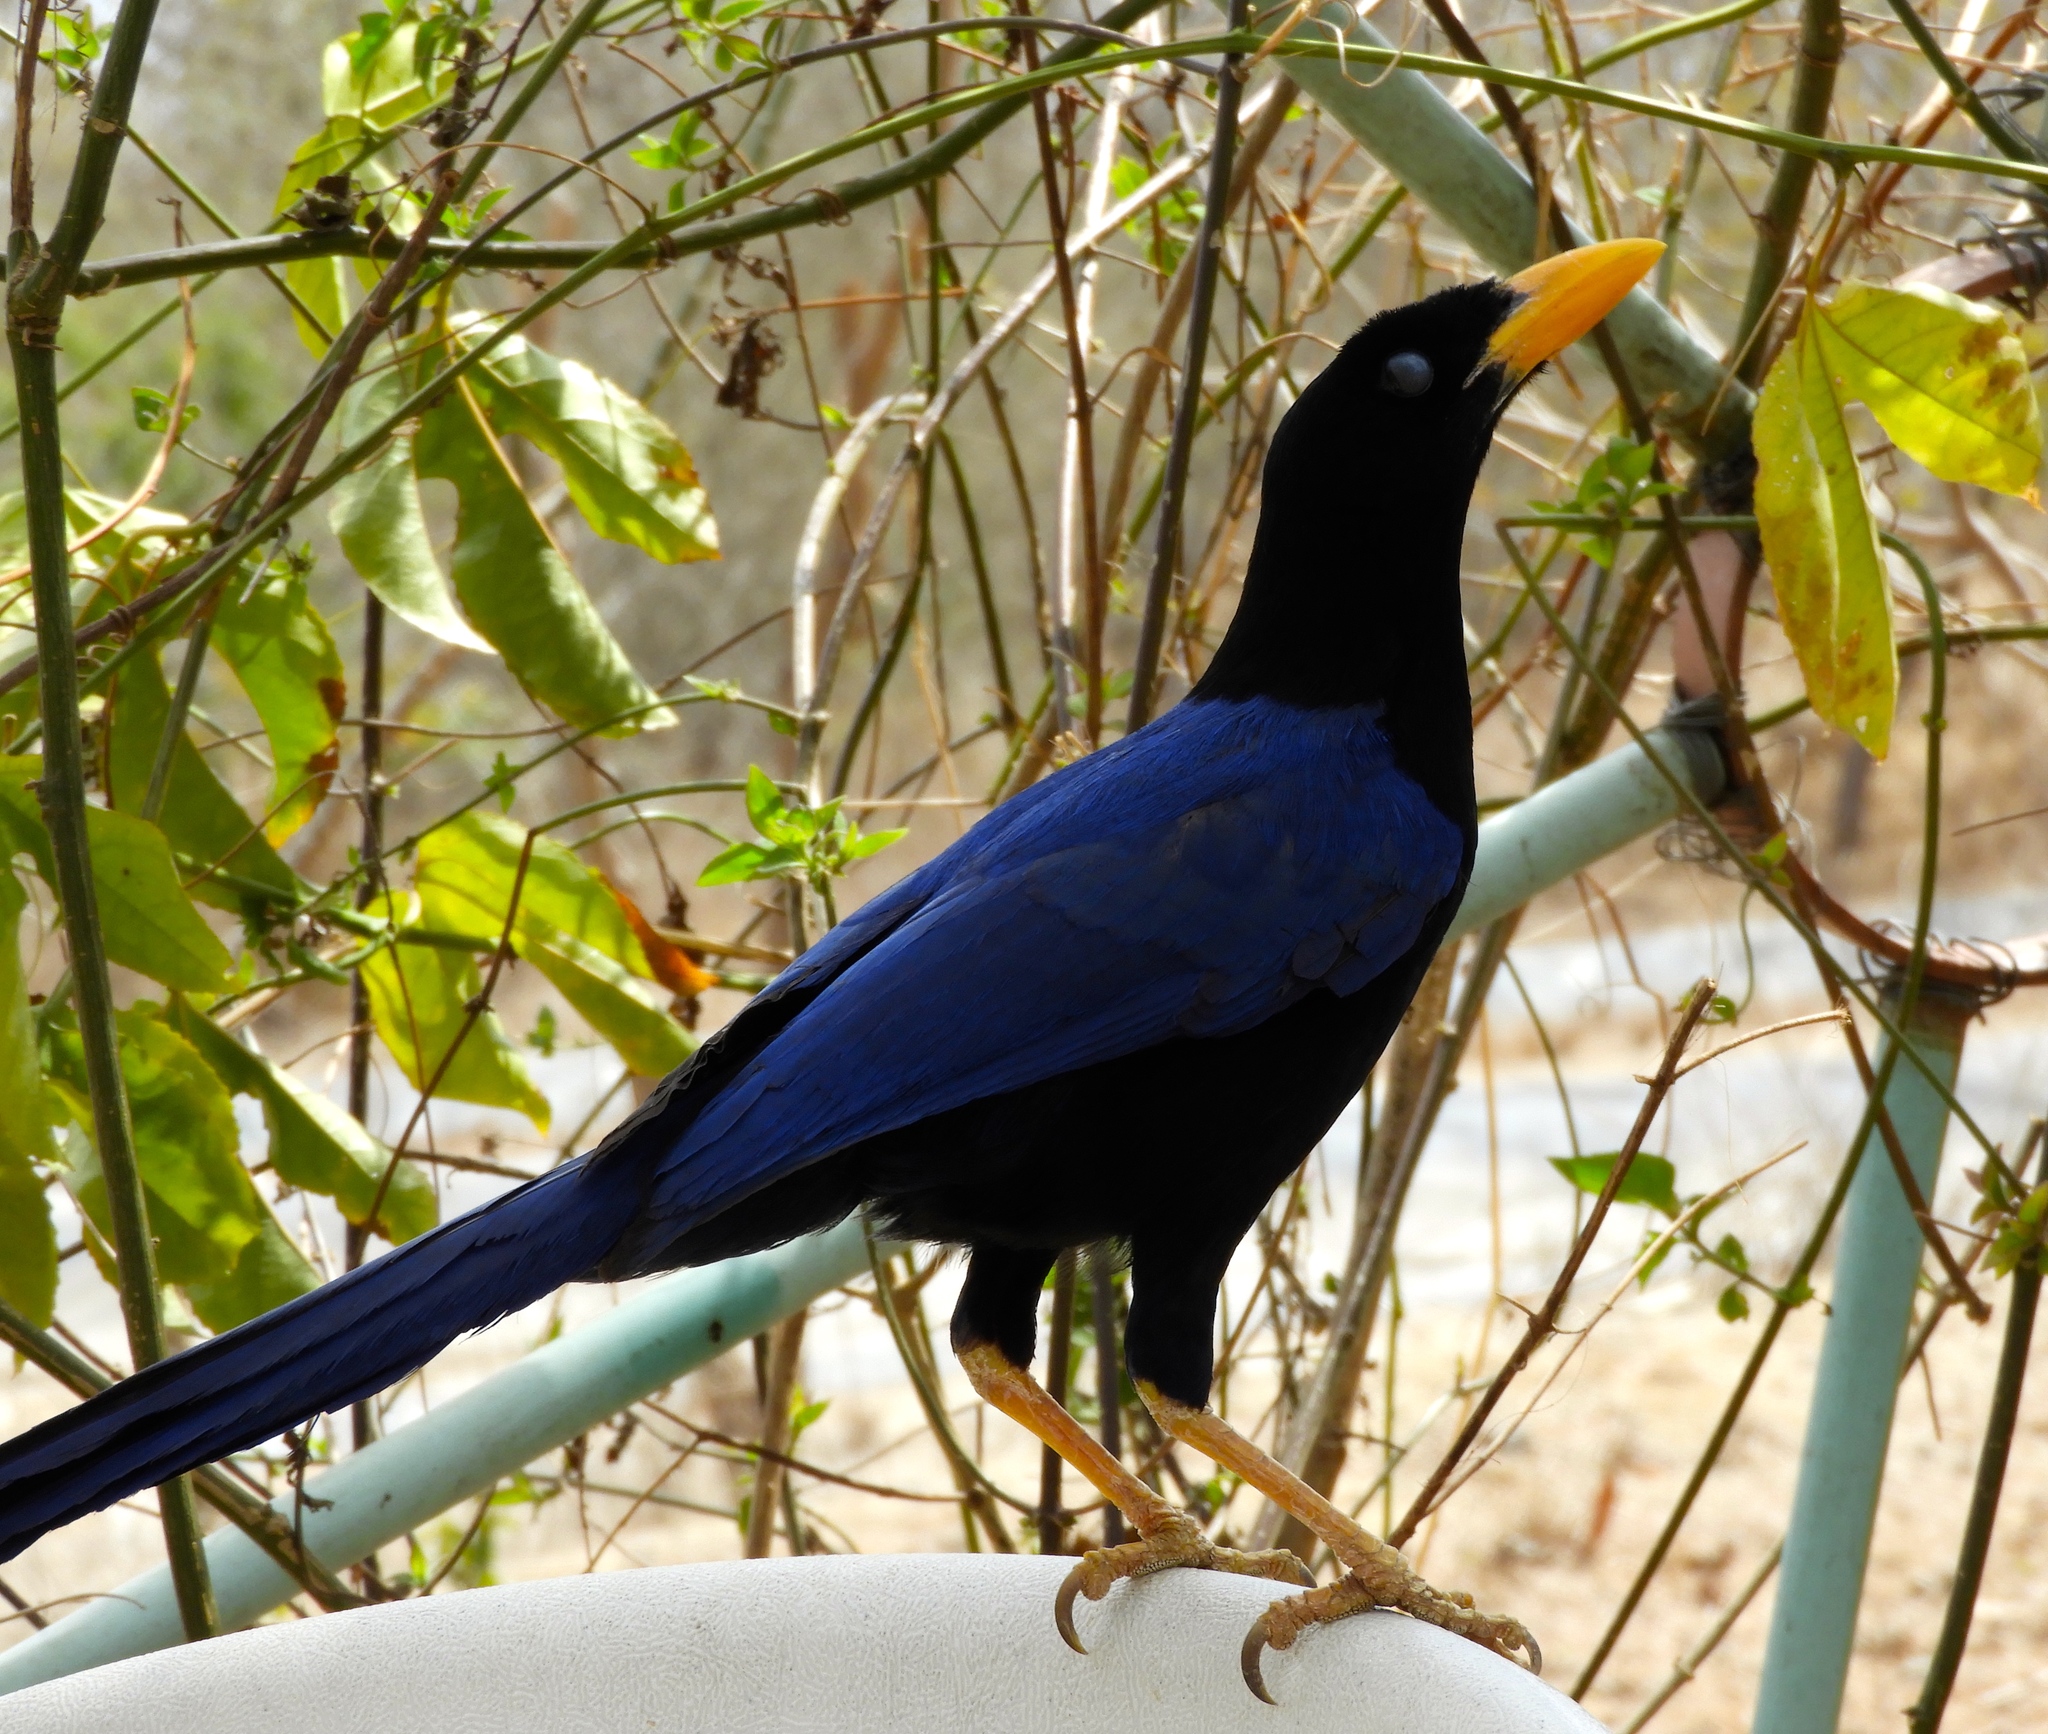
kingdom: Animalia
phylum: Chordata
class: Aves
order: Passeriformes
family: Corvidae
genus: Cyanocorax
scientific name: Cyanocorax beecheii
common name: Purplish-backed jay
